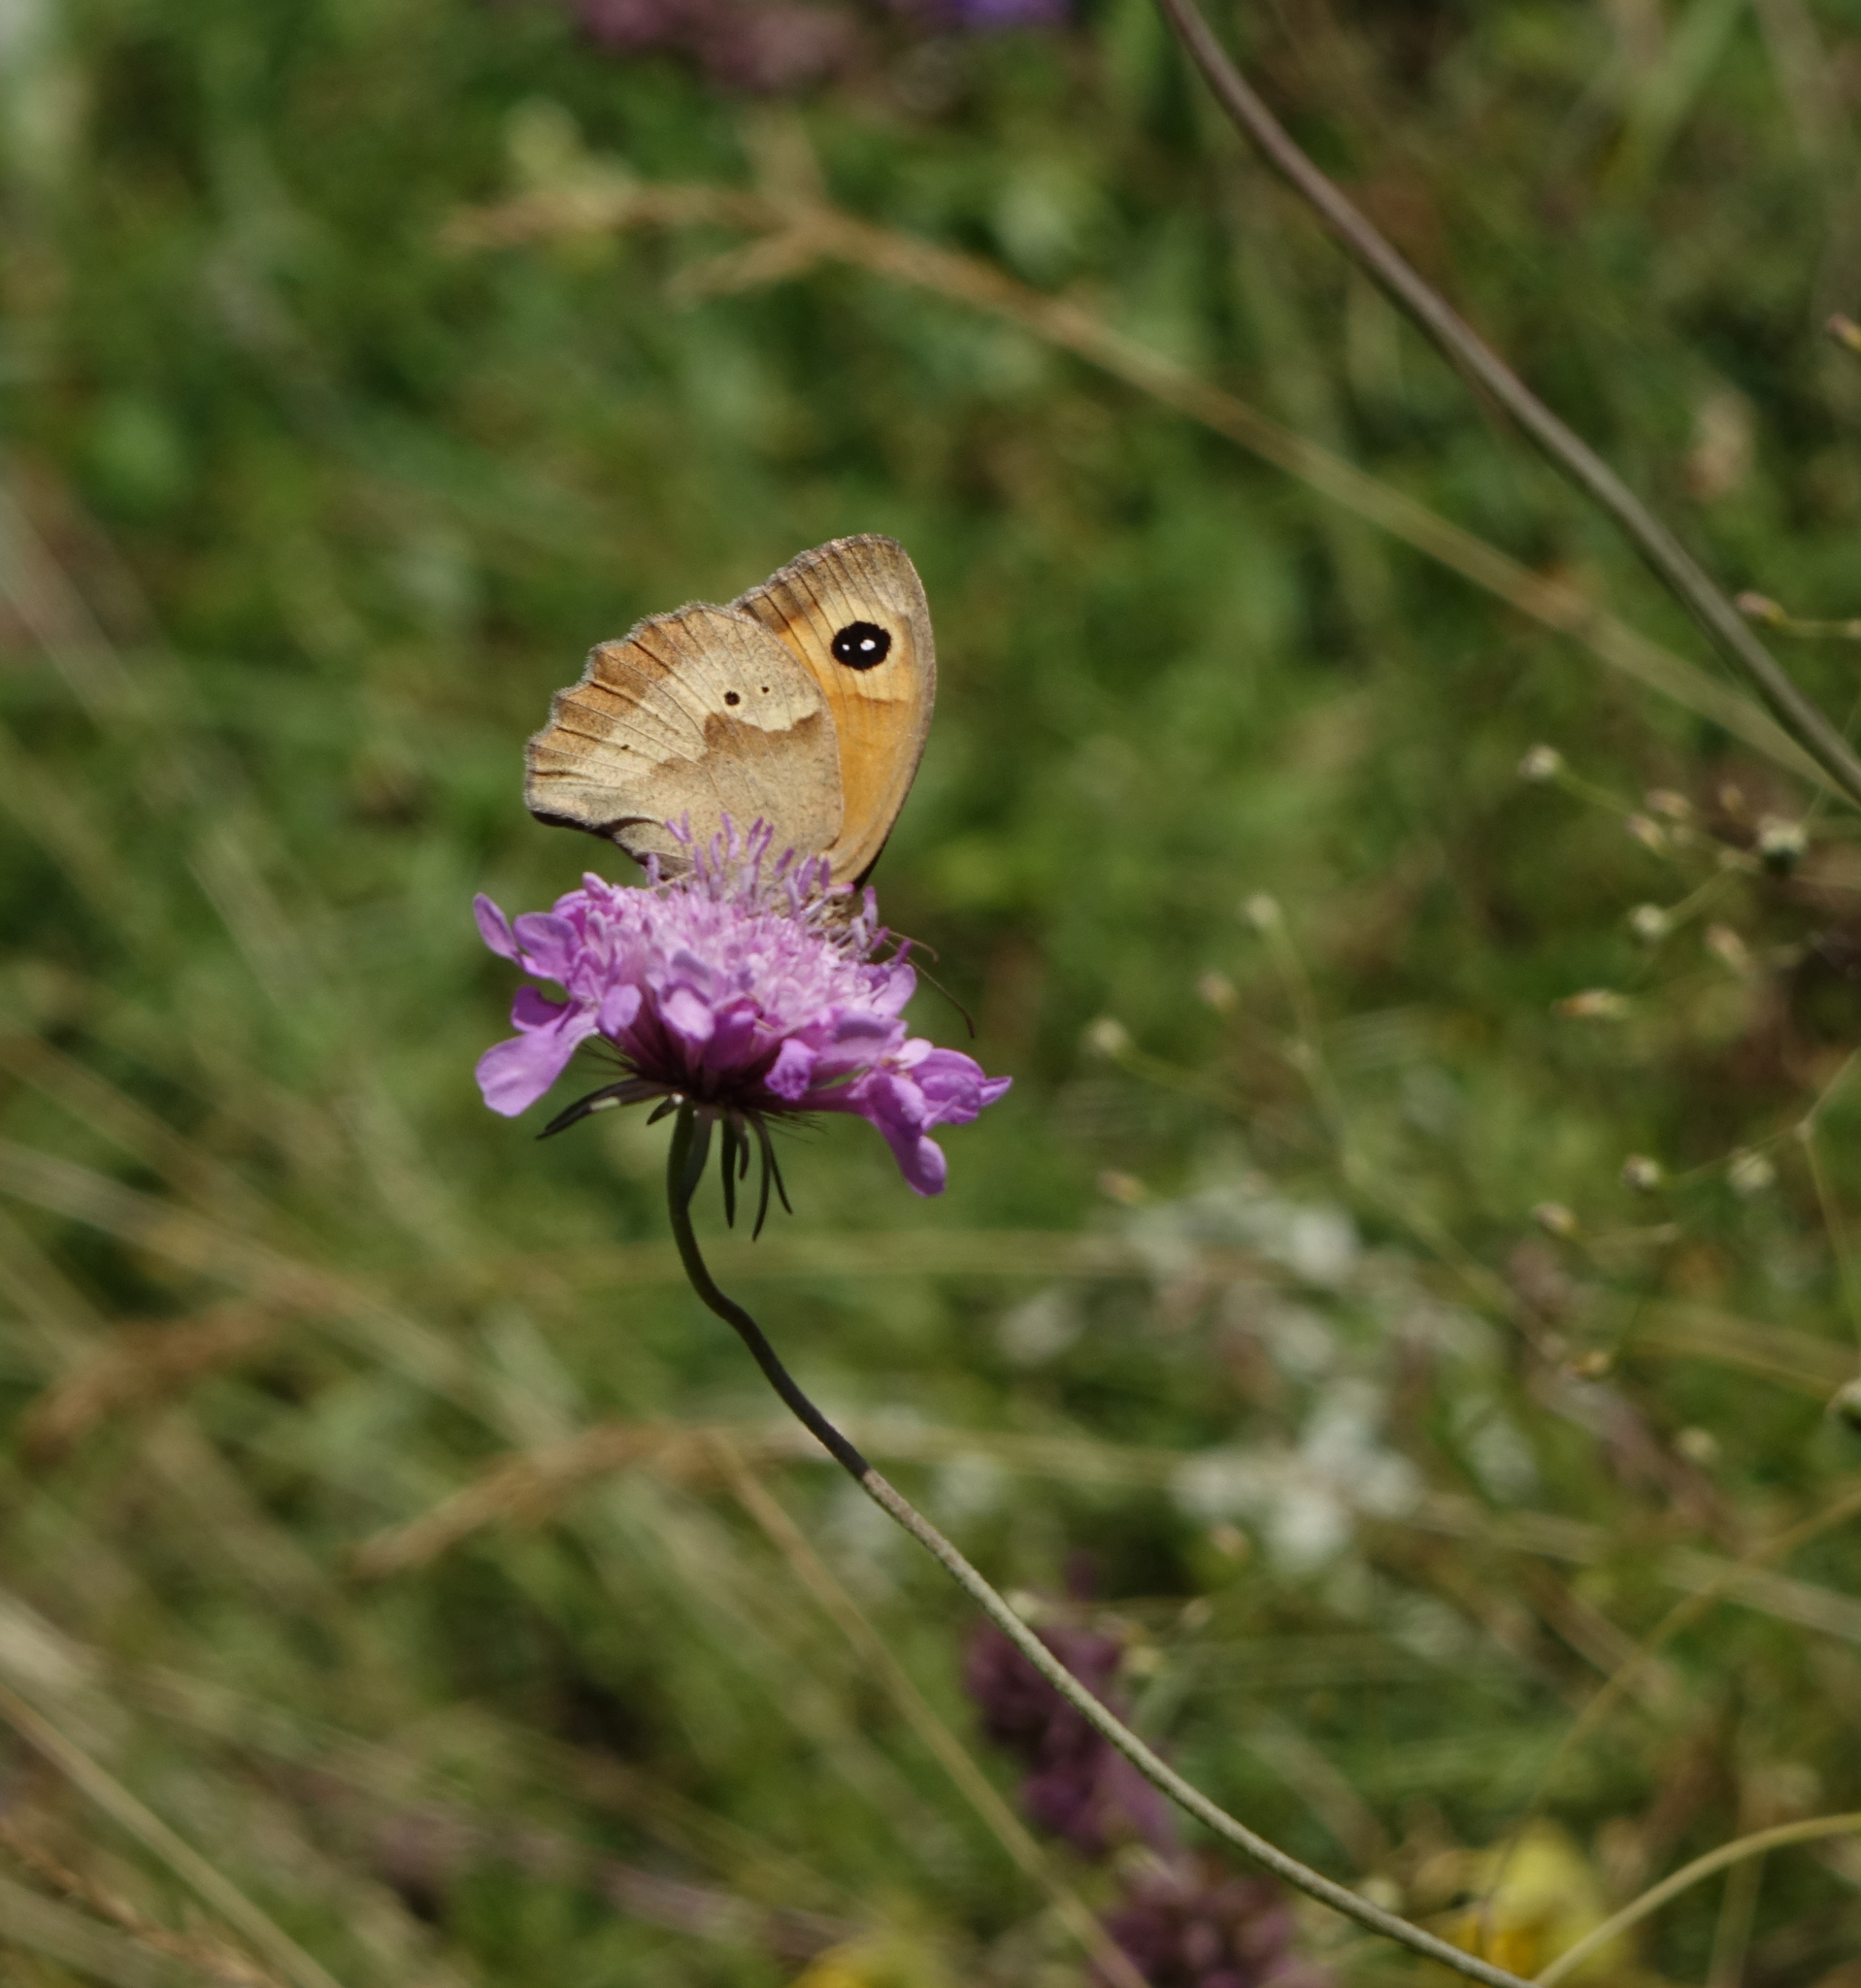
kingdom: Animalia
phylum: Arthropoda
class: Insecta
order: Lepidoptera
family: Nymphalidae
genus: Maniola
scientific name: Maniola jurtina
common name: Meadow brown
